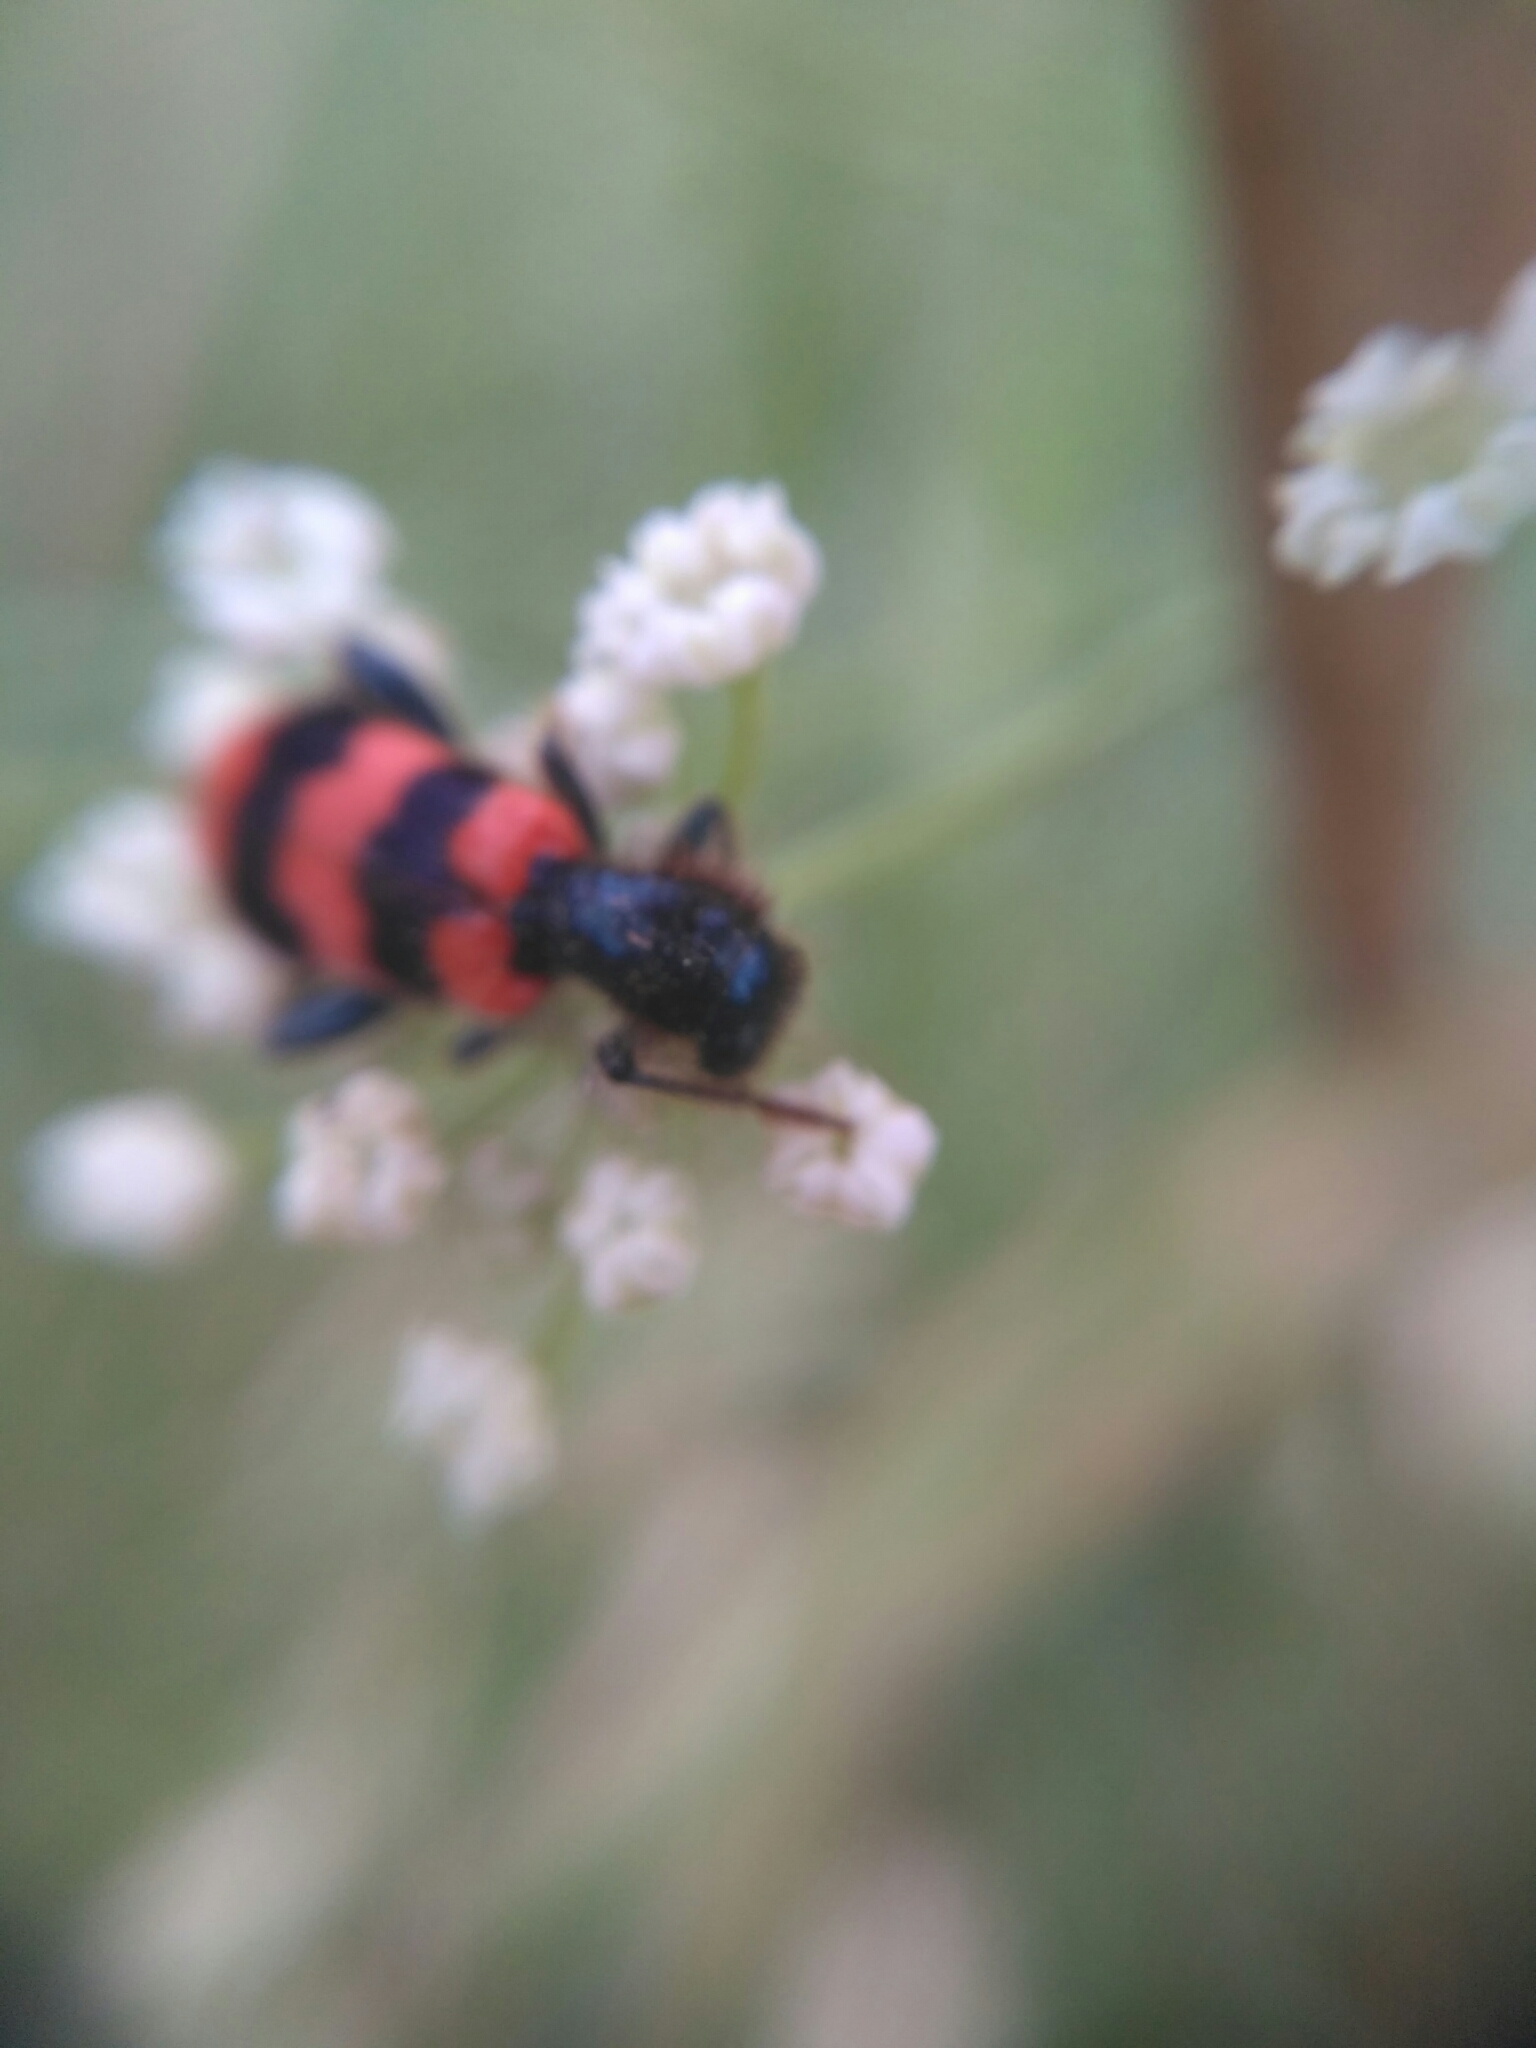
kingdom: Animalia
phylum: Arthropoda
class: Insecta
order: Coleoptera
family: Cleridae
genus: Trichodes
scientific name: Trichodes apiarius
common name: Bee-eating beetle
